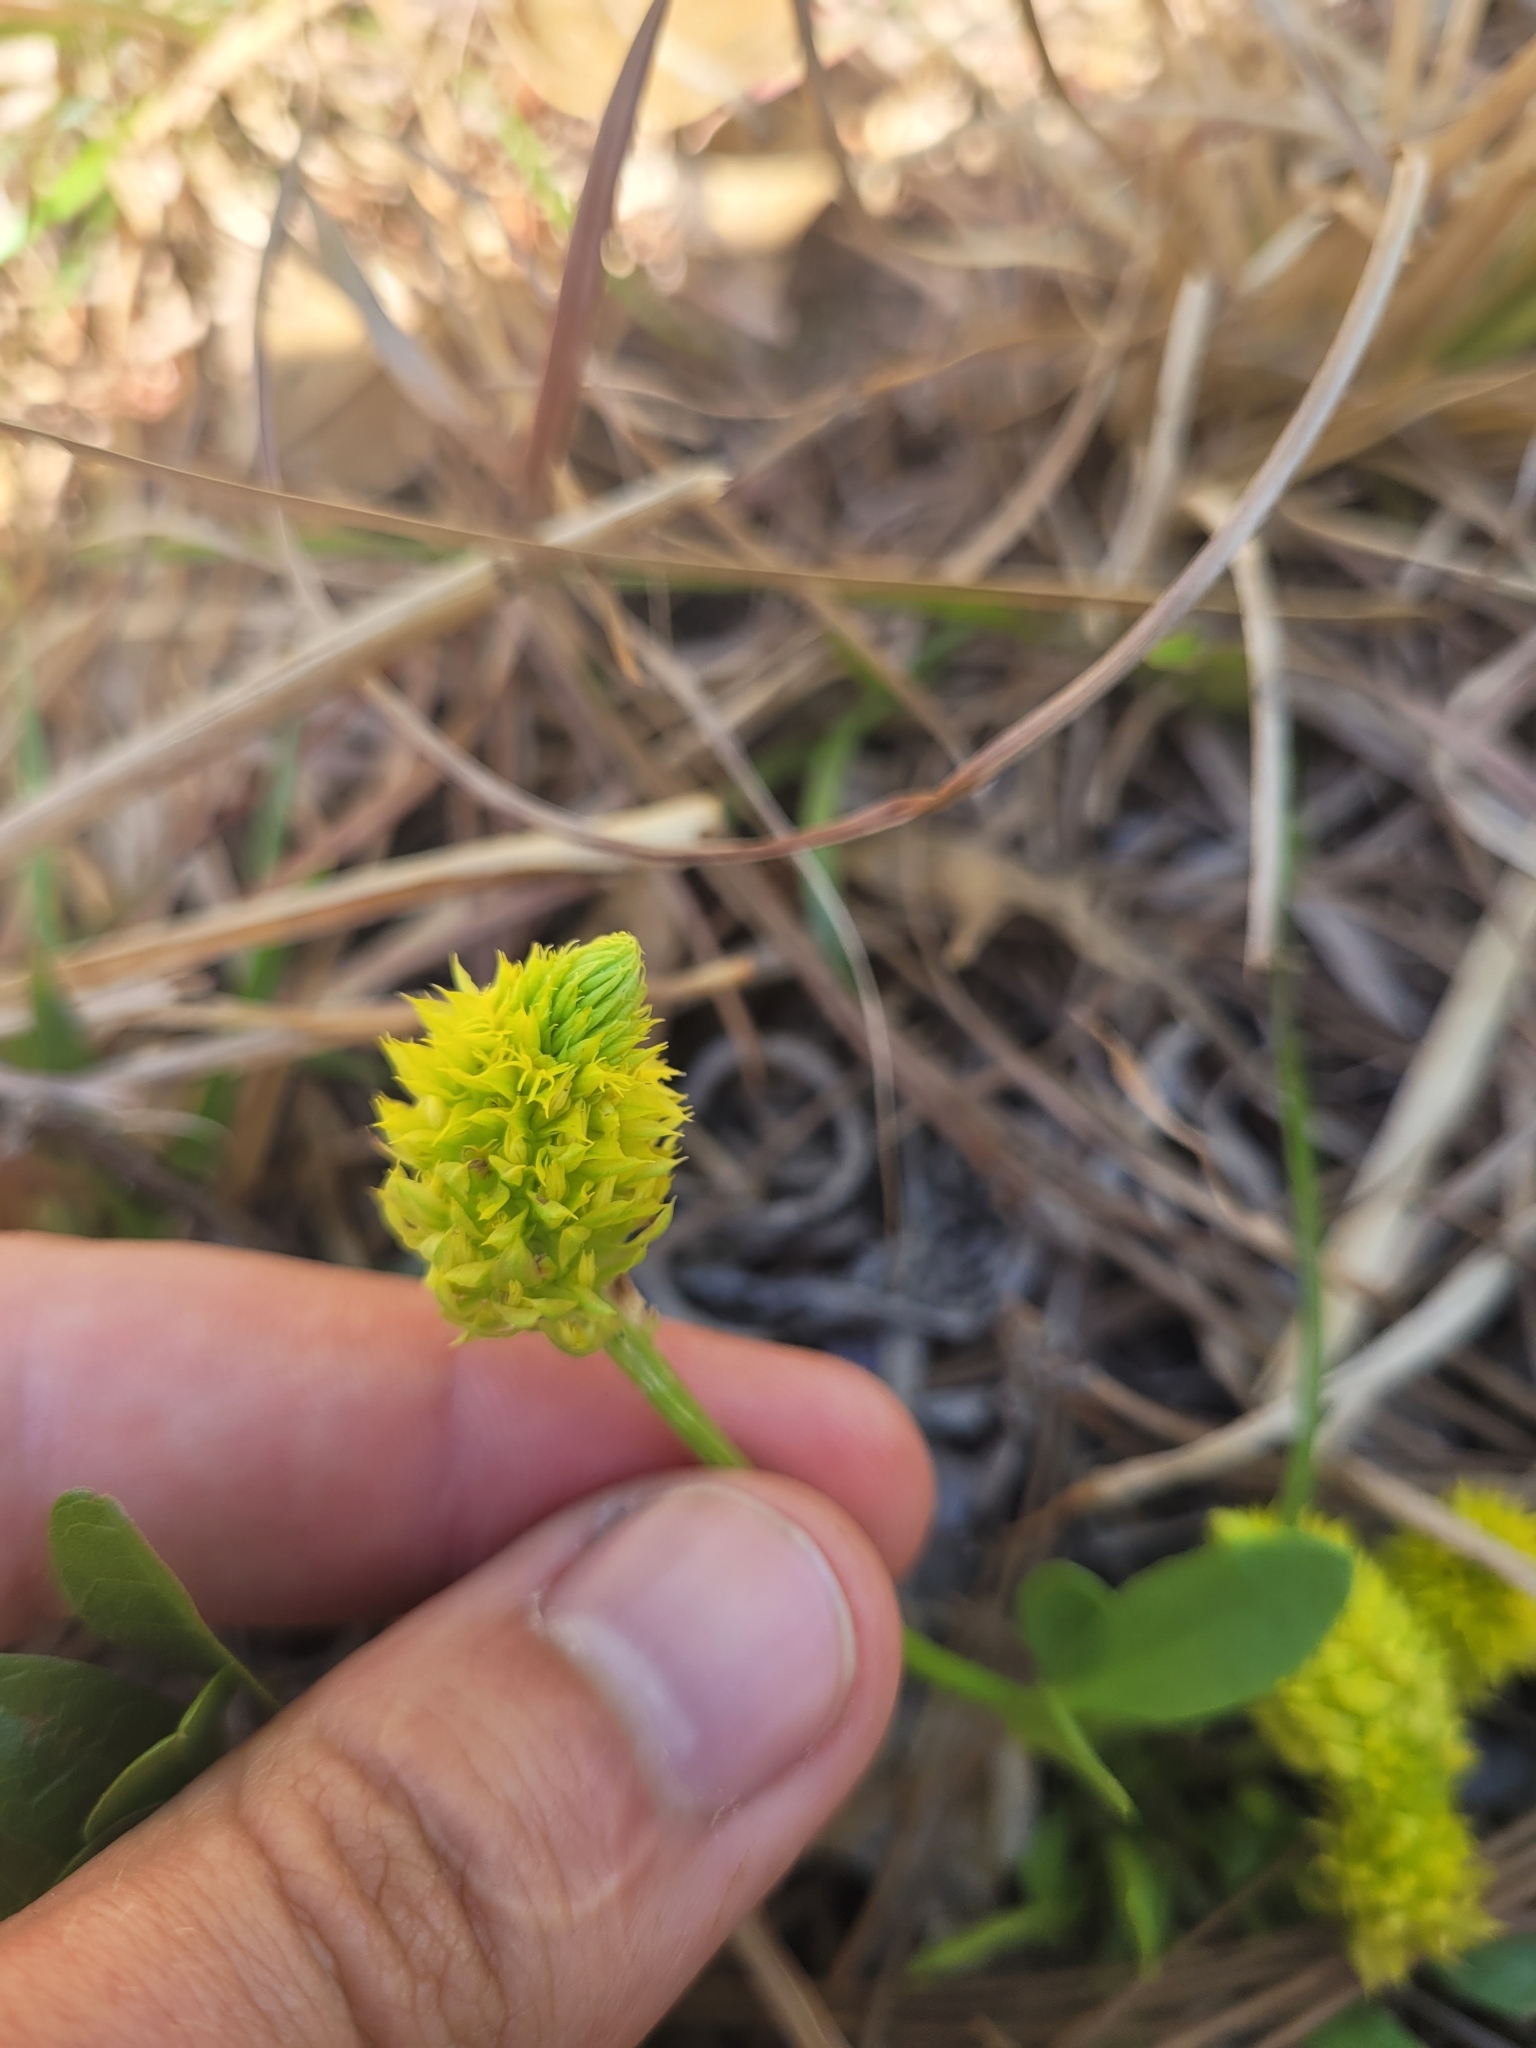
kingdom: Plantae
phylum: Tracheophyta
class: Magnoliopsida
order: Fabales
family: Polygalaceae
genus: Polygala
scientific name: Polygala nana
